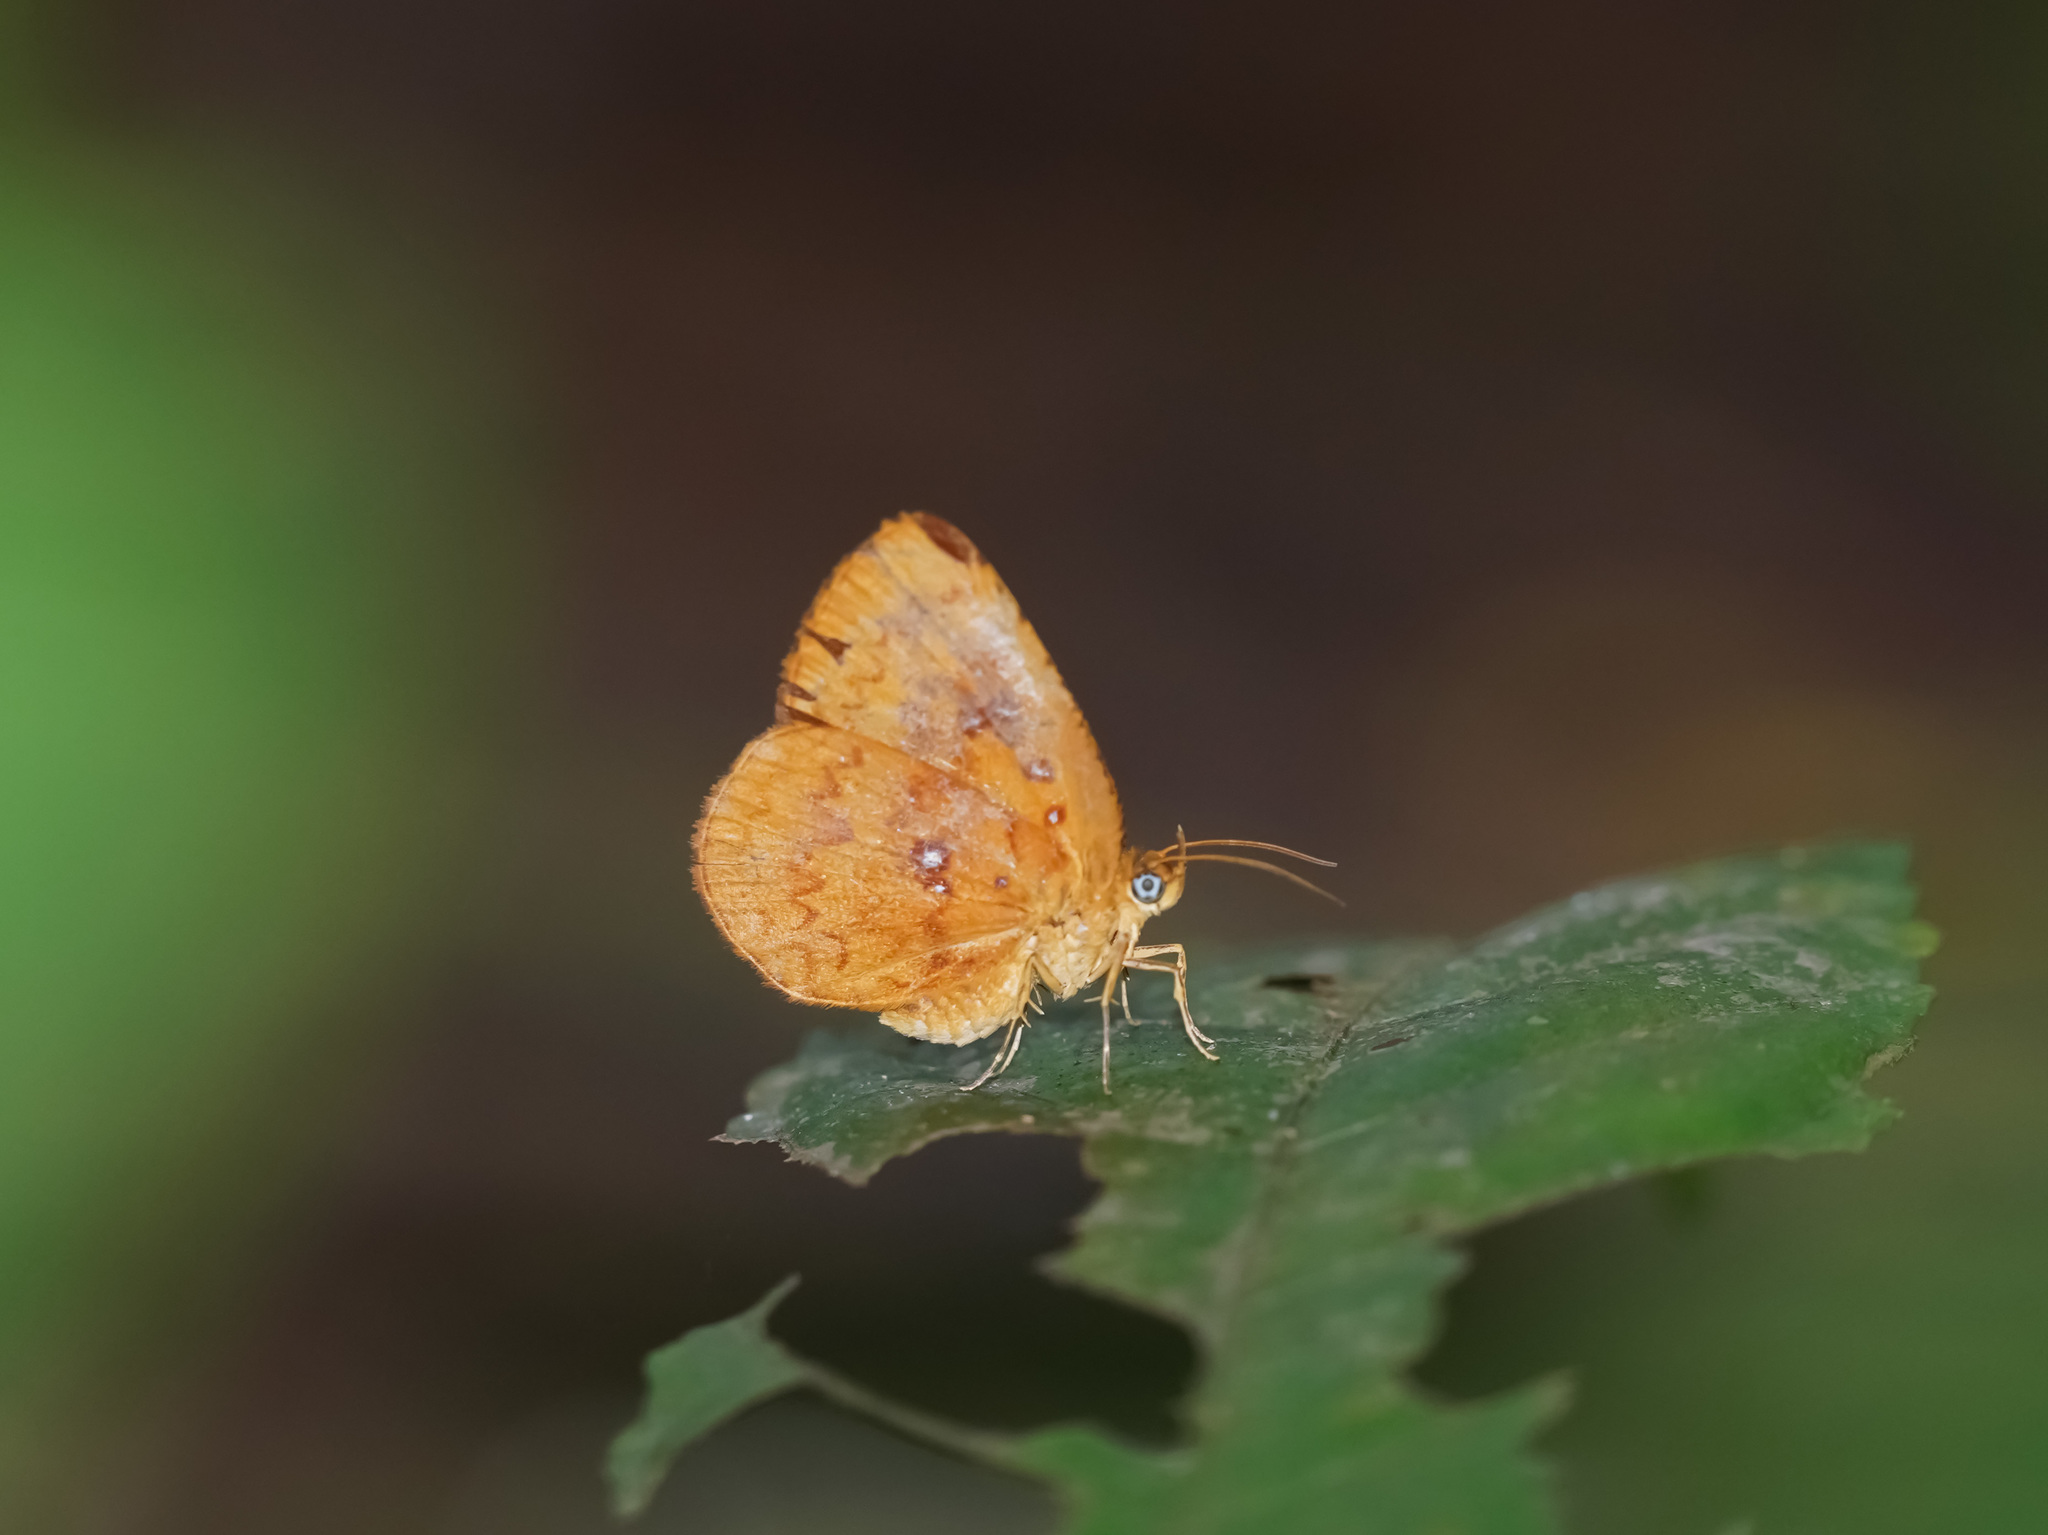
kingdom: Animalia
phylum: Arthropoda
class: Insecta
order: Lepidoptera
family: Callidulidae
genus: Tetragonus
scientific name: Tetragonus lycaenoides
